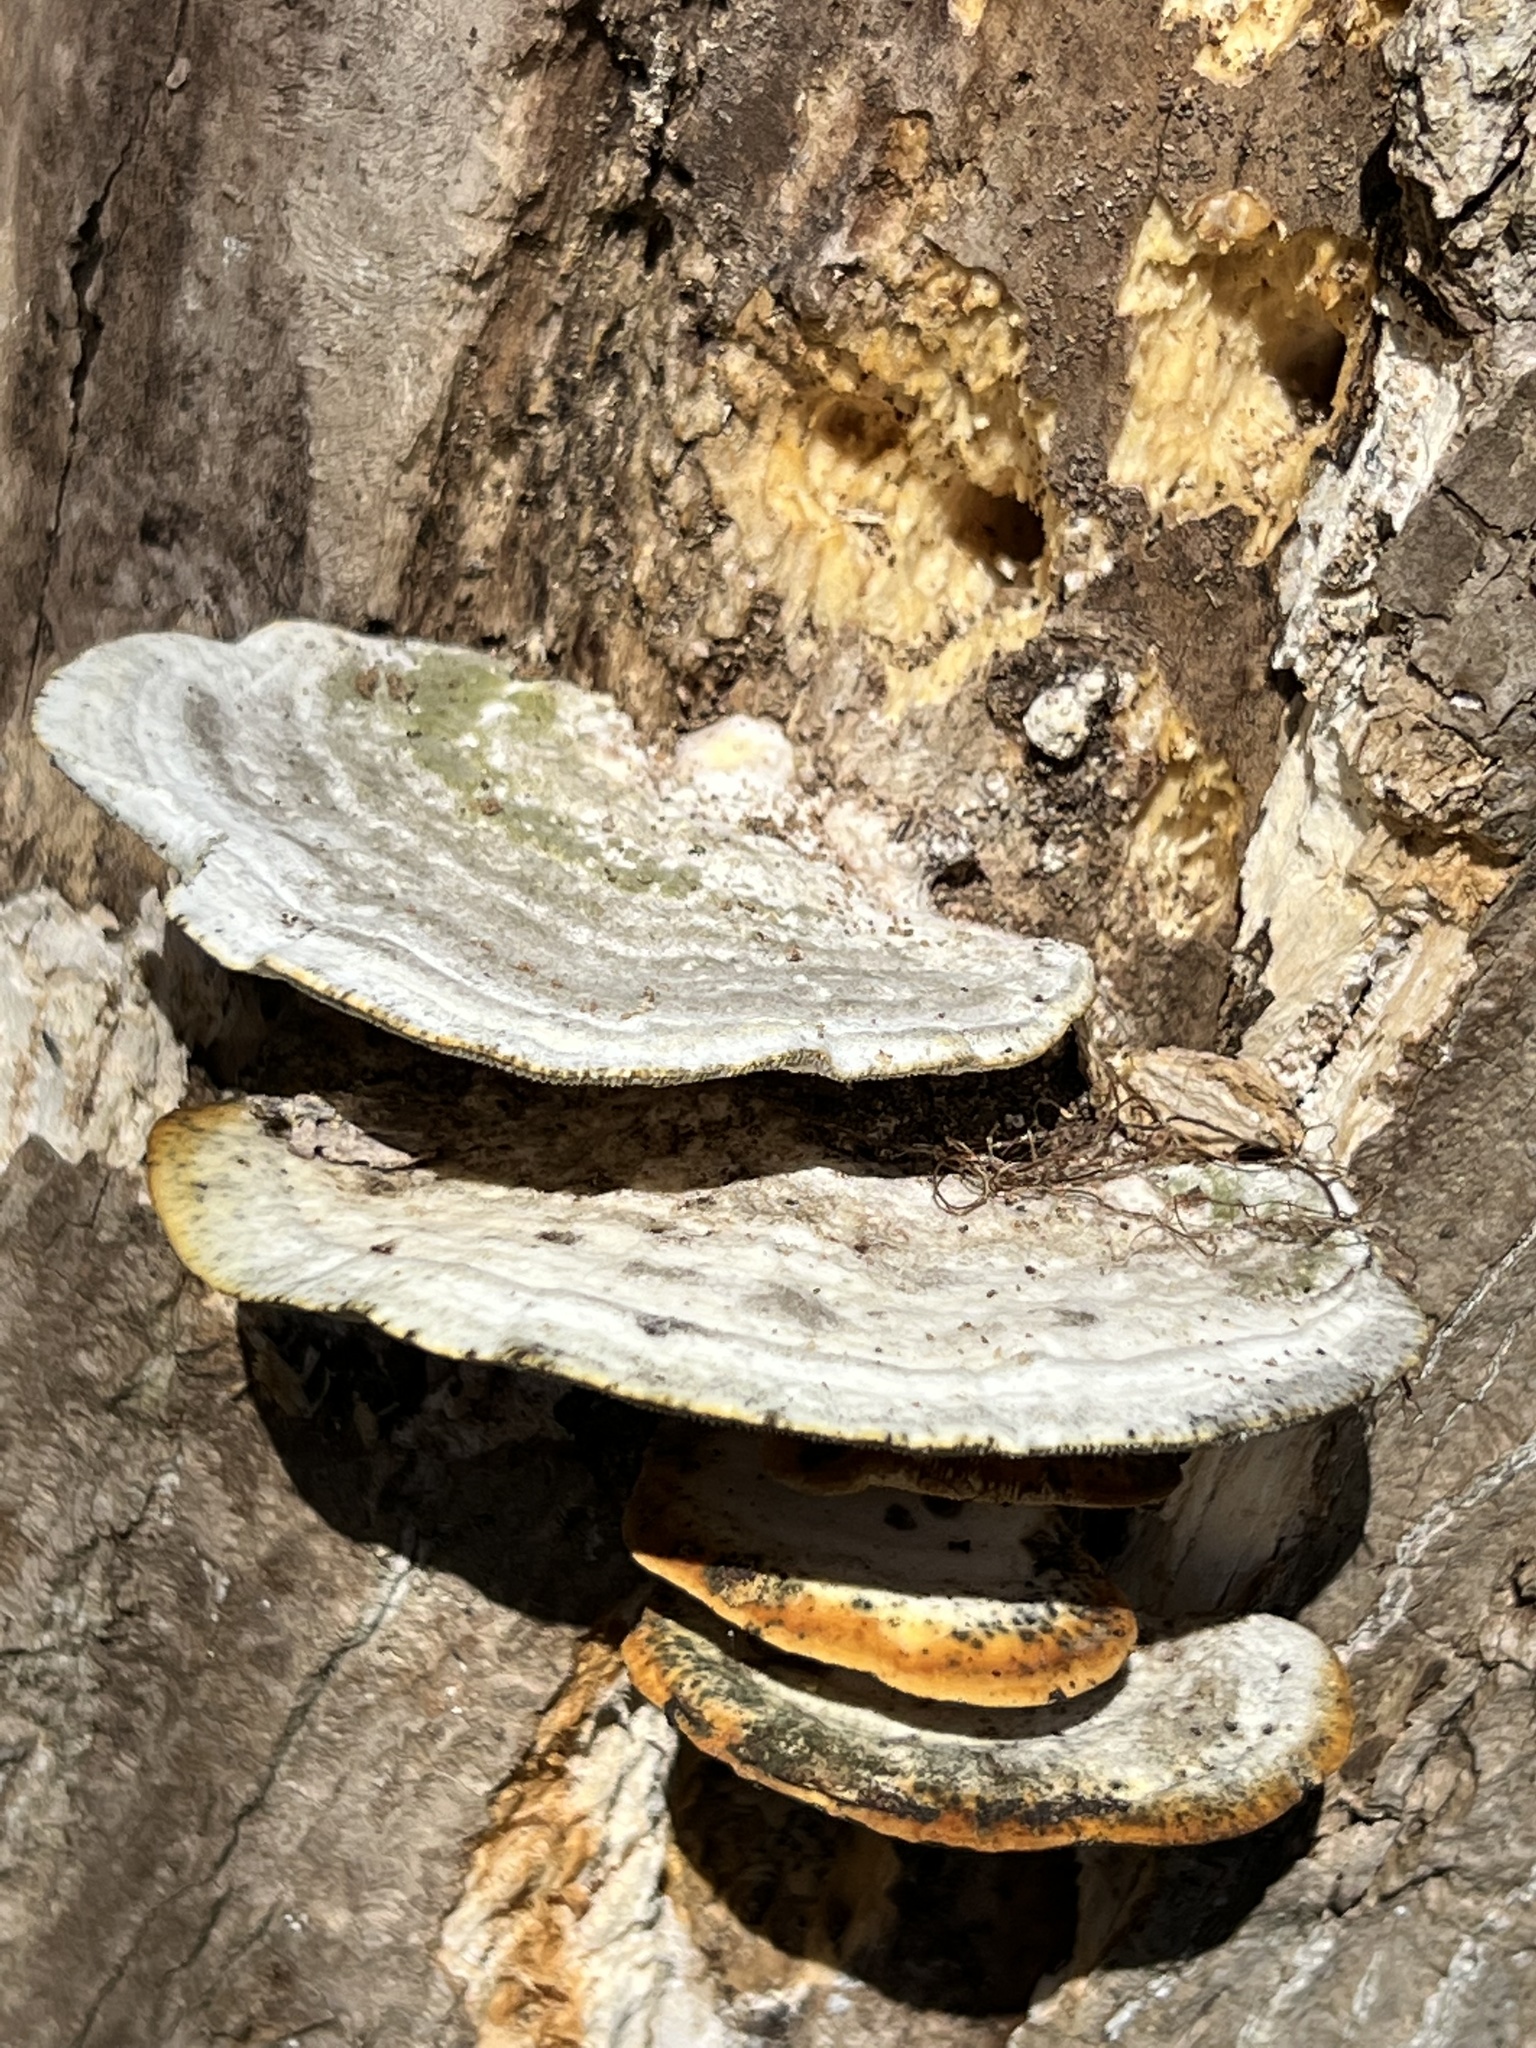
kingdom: Fungi
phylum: Basidiomycota
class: Agaricomycetes
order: Polyporales
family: Polyporaceae
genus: Trametes
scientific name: Trametes gibbosa
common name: Lumpy bracket
